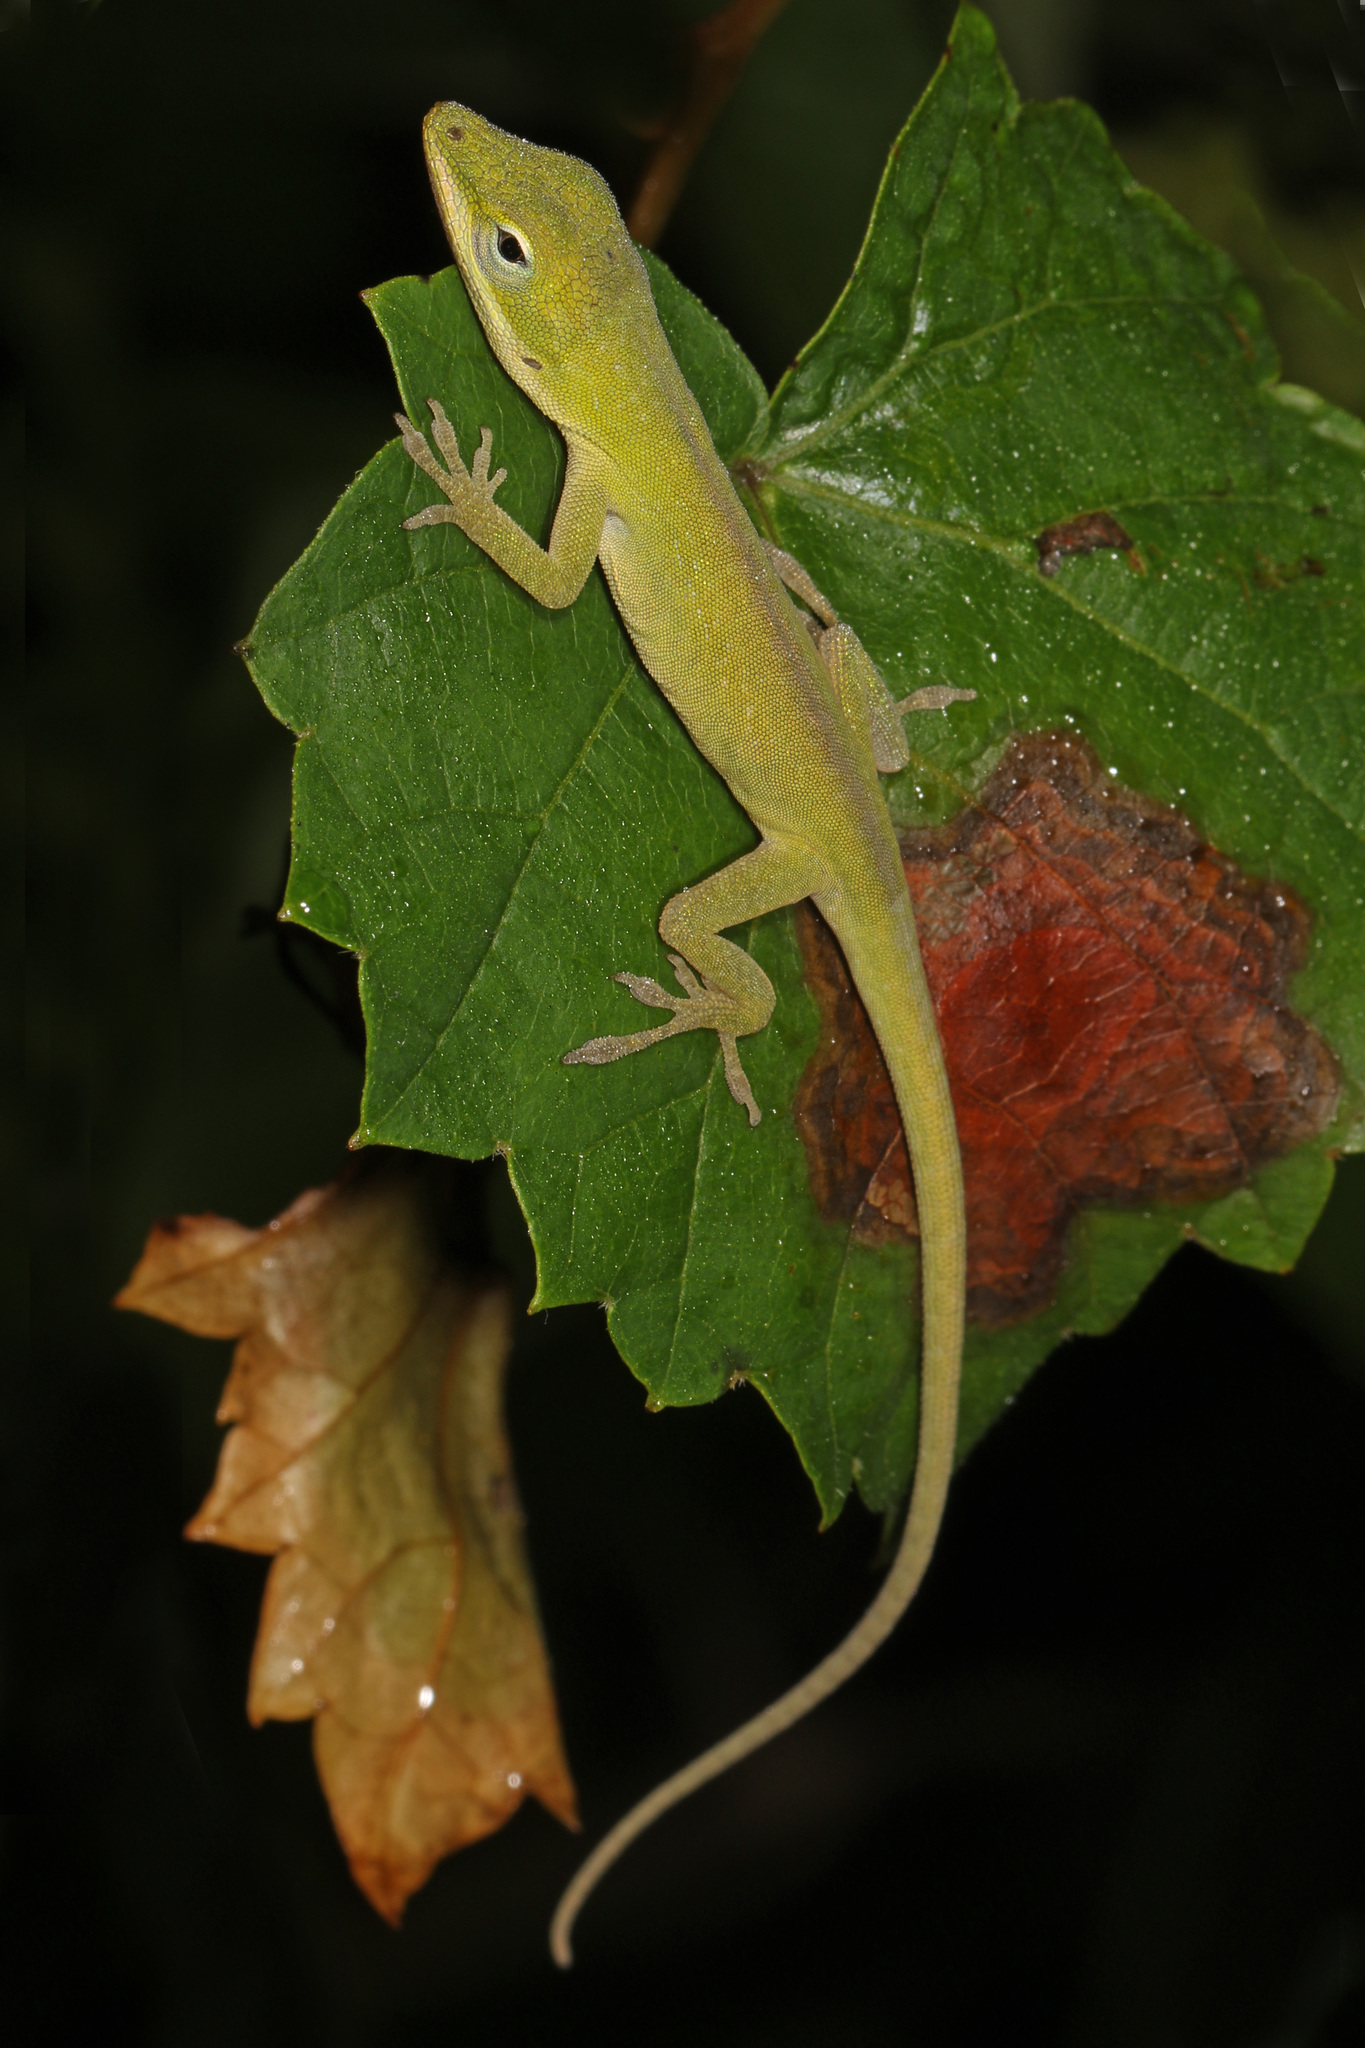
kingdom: Animalia
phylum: Chordata
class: Squamata
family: Dactyloidae
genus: Anolis
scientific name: Anolis carolinensis
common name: Green anole
